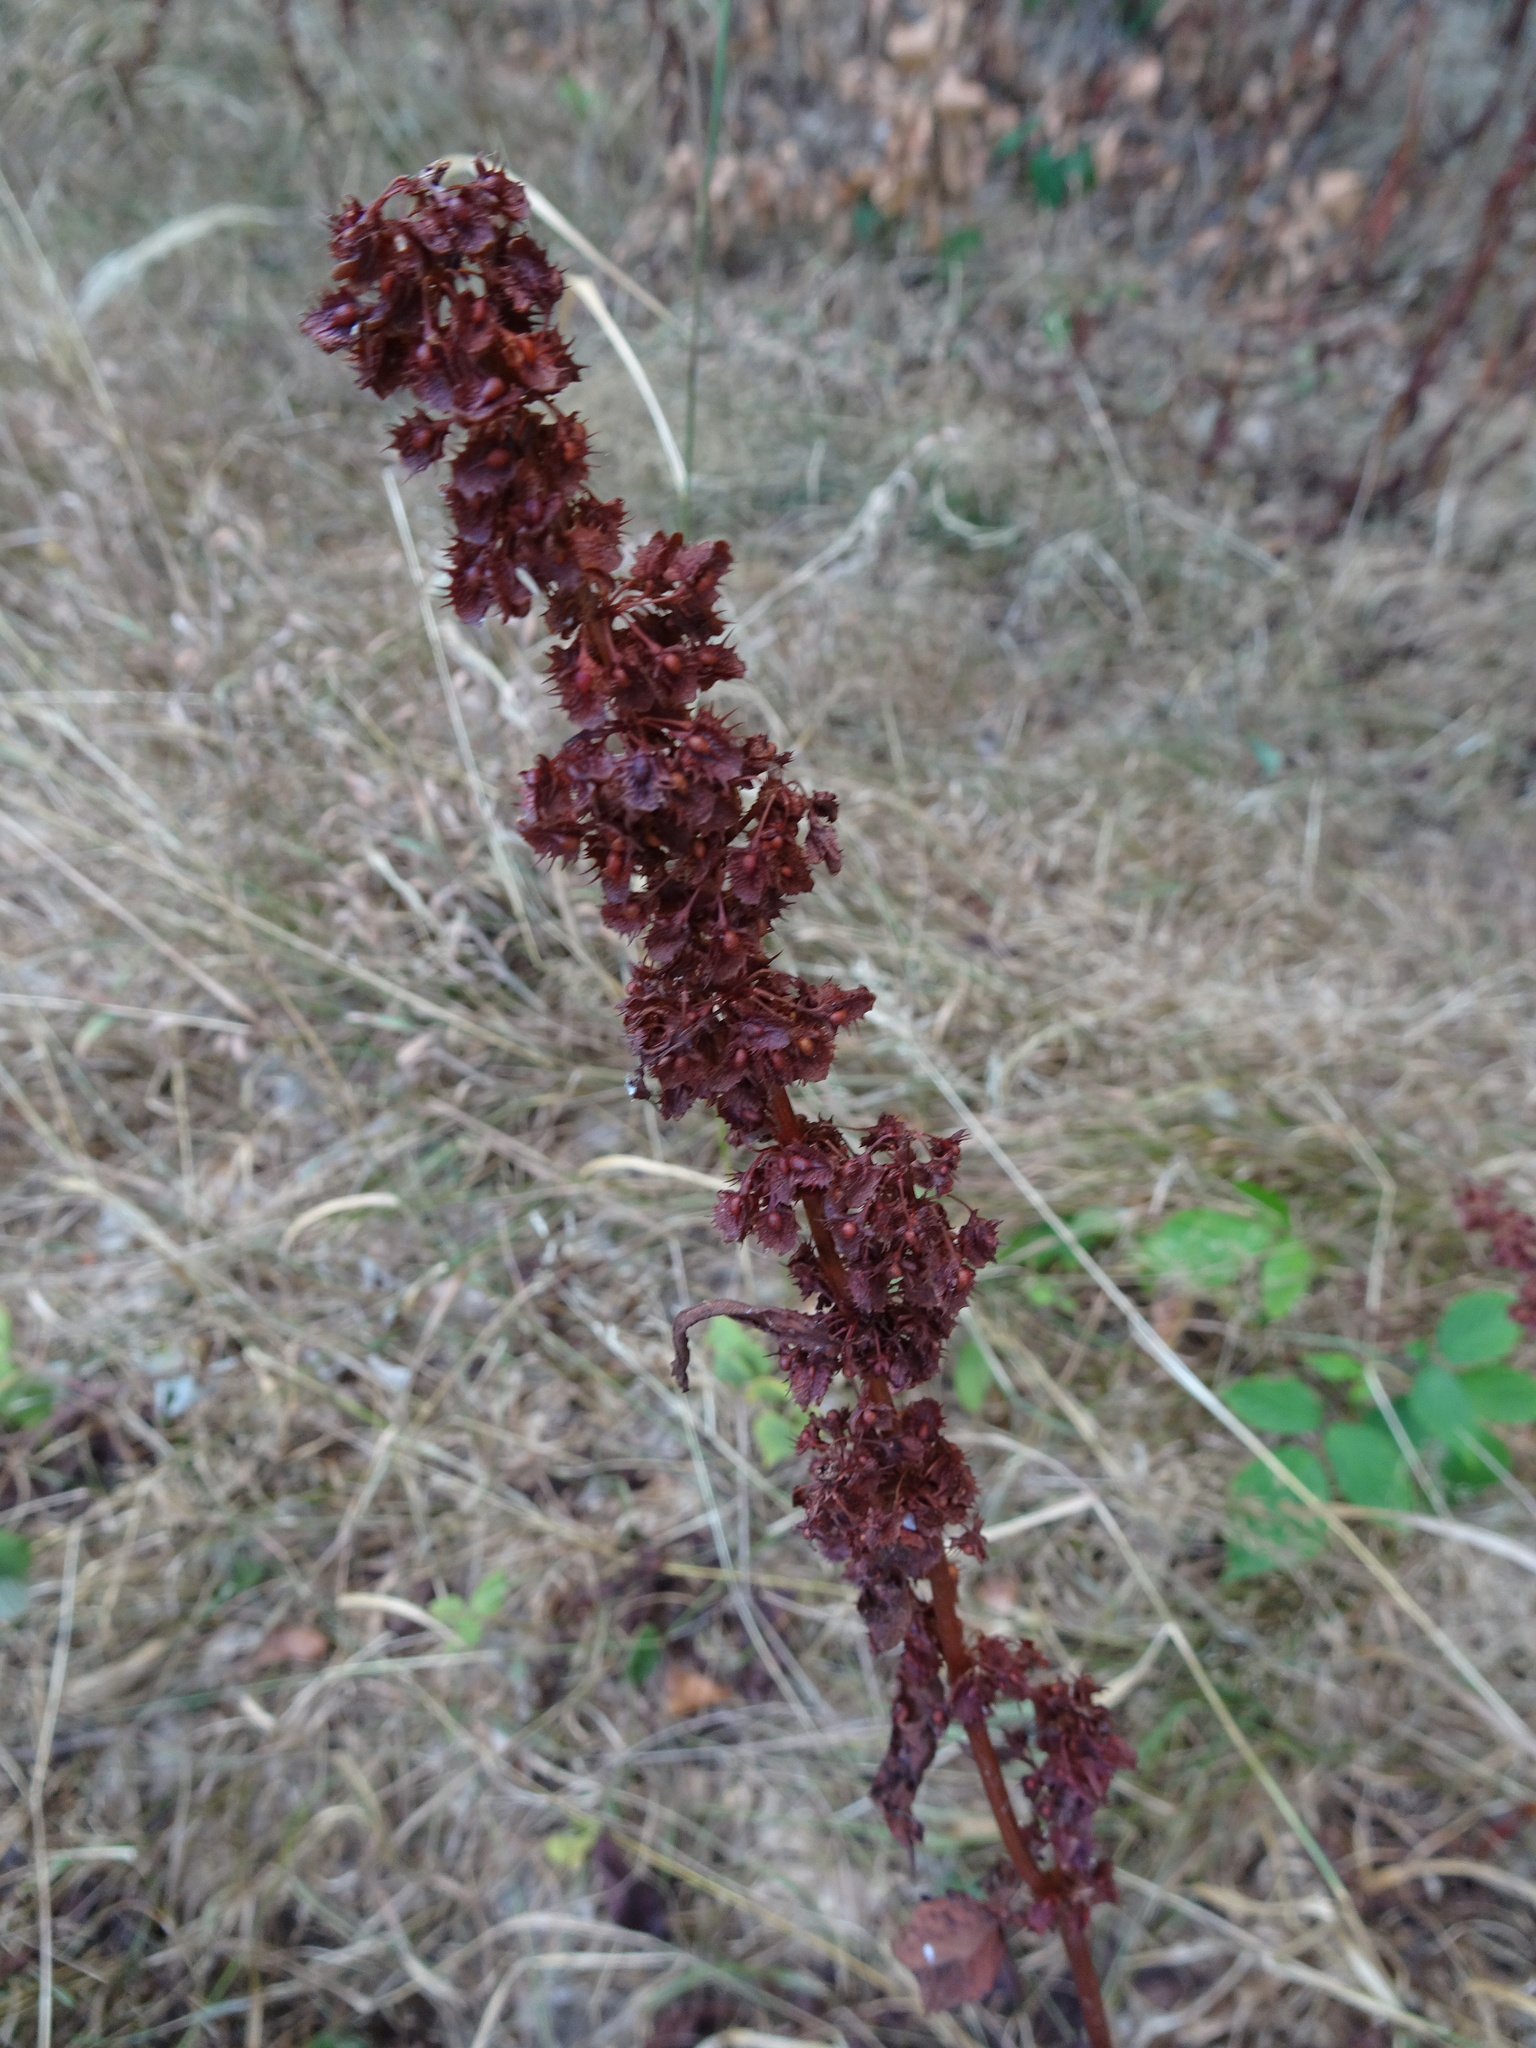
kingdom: Plantae
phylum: Tracheophyta
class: Magnoliopsida
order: Caryophyllales
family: Polygonaceae
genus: Rumex
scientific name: Rumex obtusifolius
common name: Bitter dock
